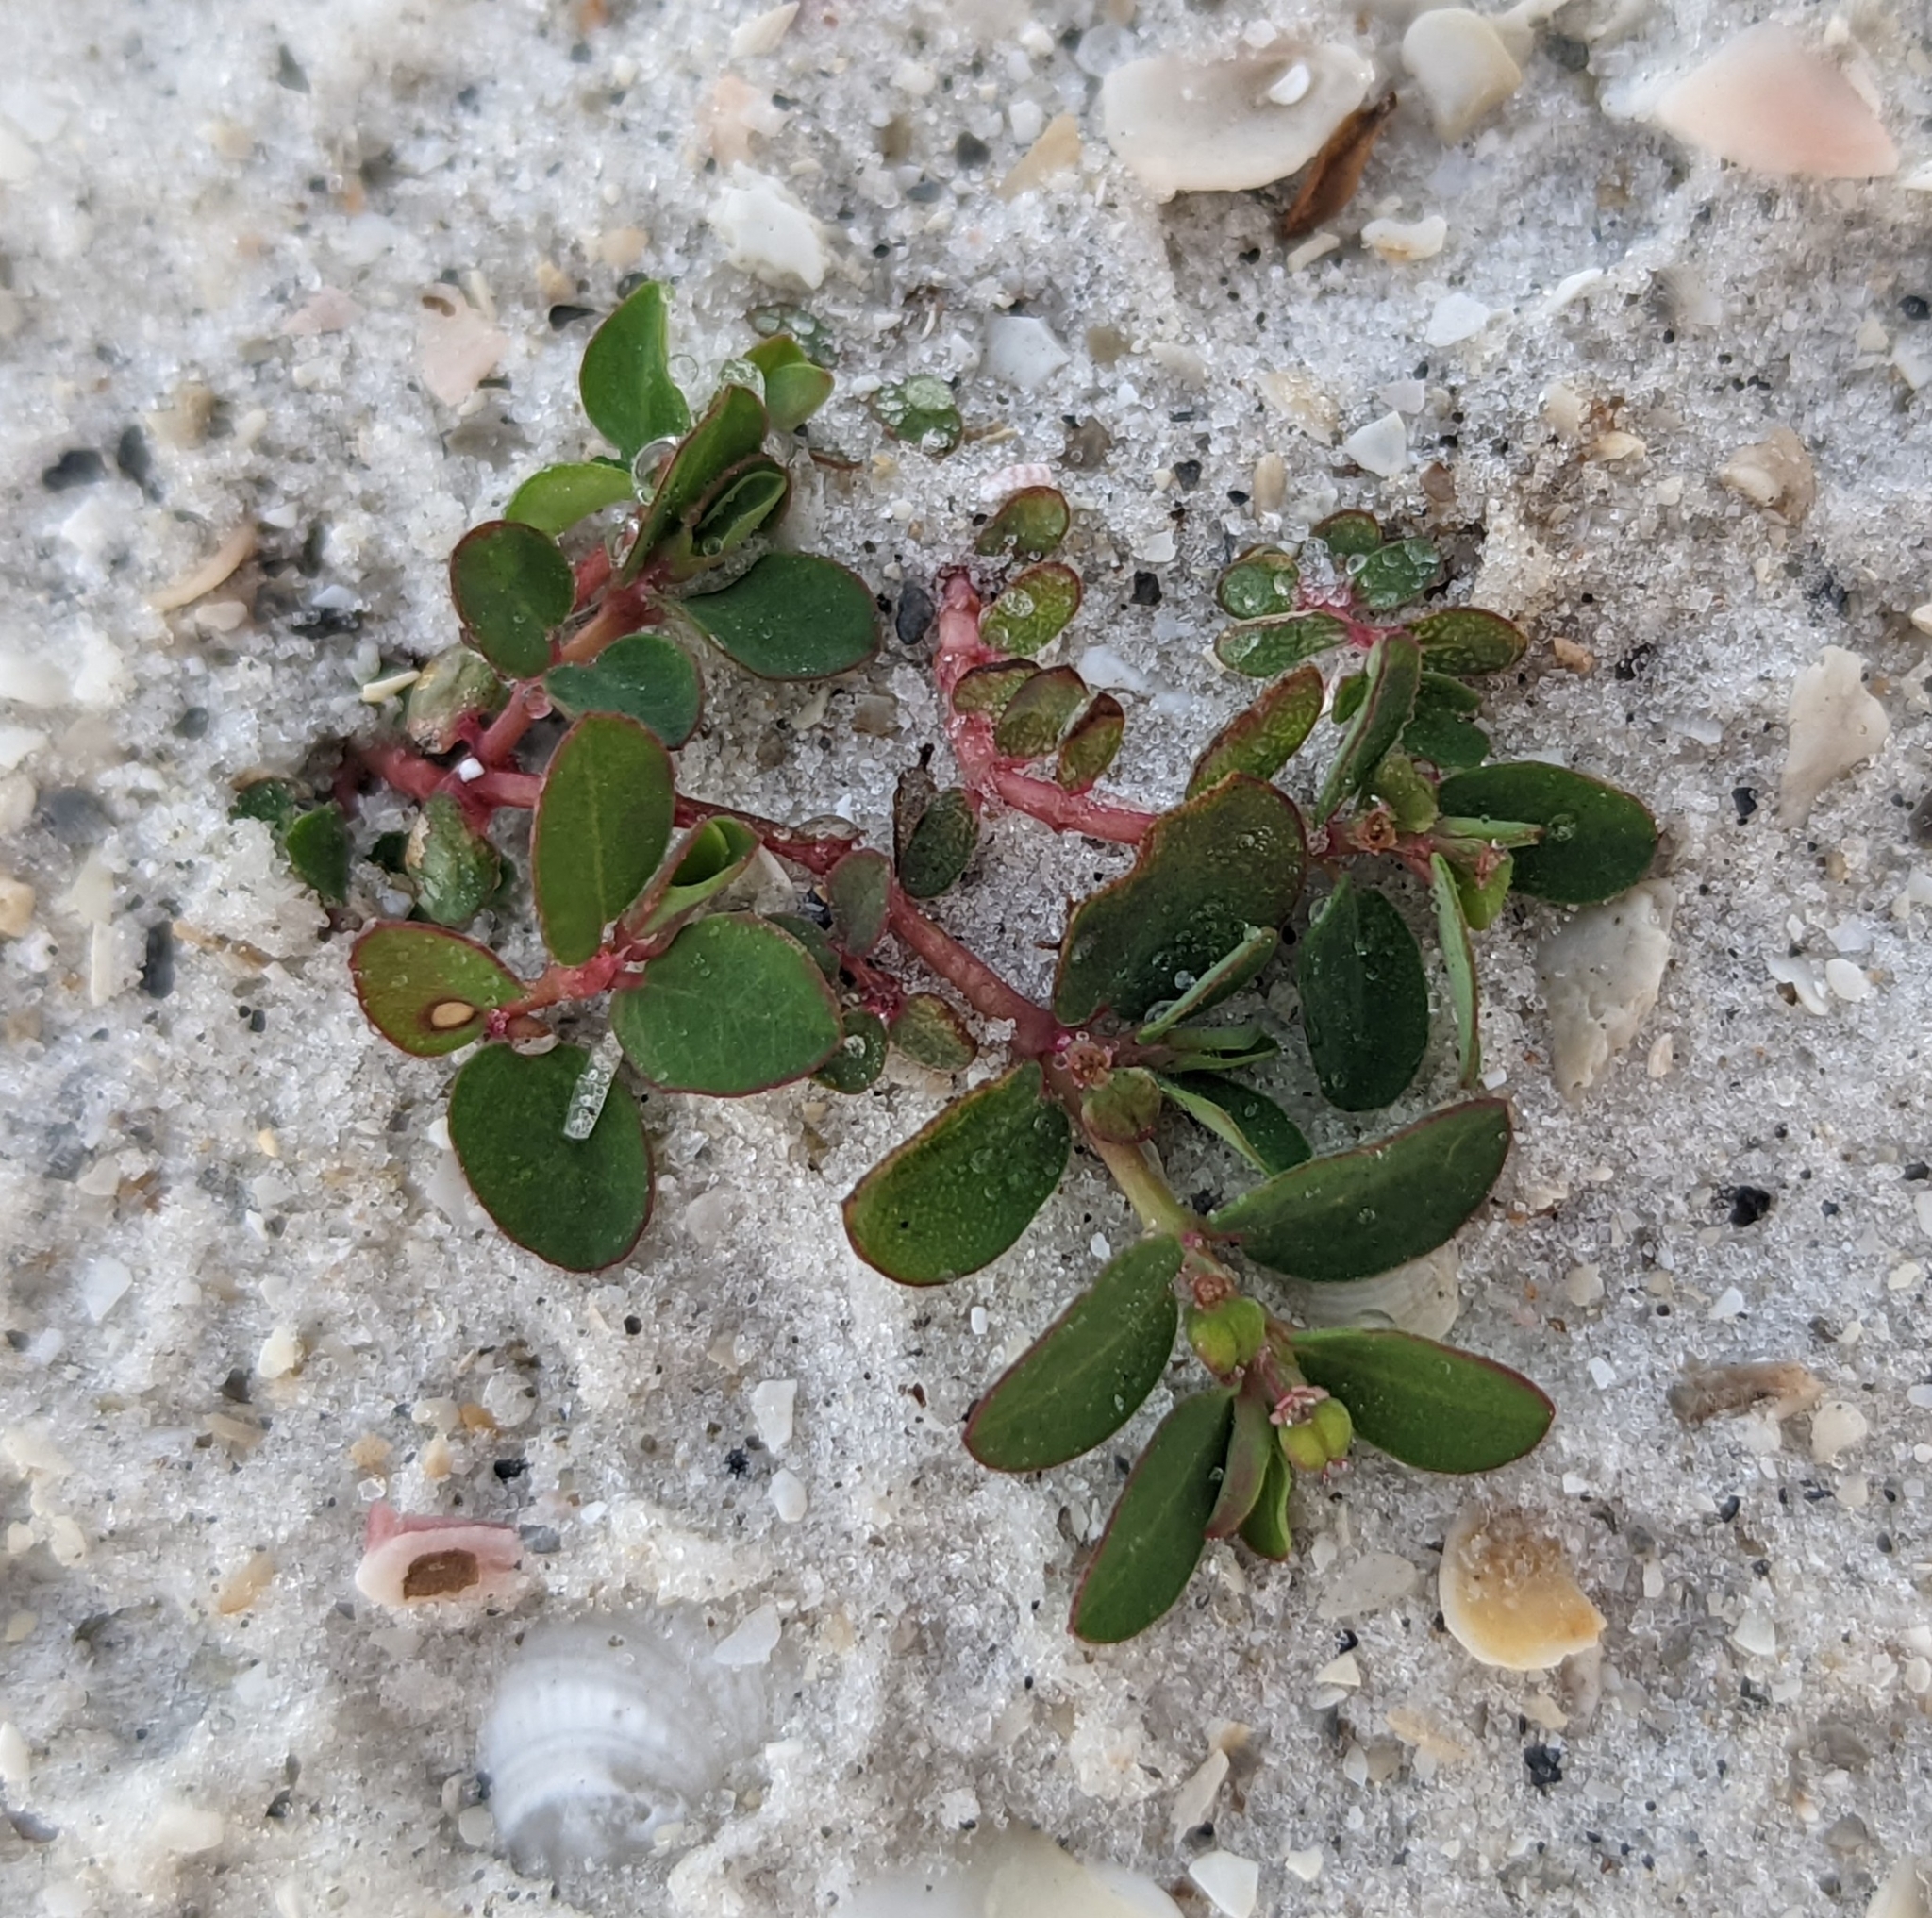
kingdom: Plantae
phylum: Tracheophyta
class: Magnoliopsida
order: Malpighiales
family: Euphorbiaceae
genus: Euphorbia
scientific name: Euphorbia blodgettii
